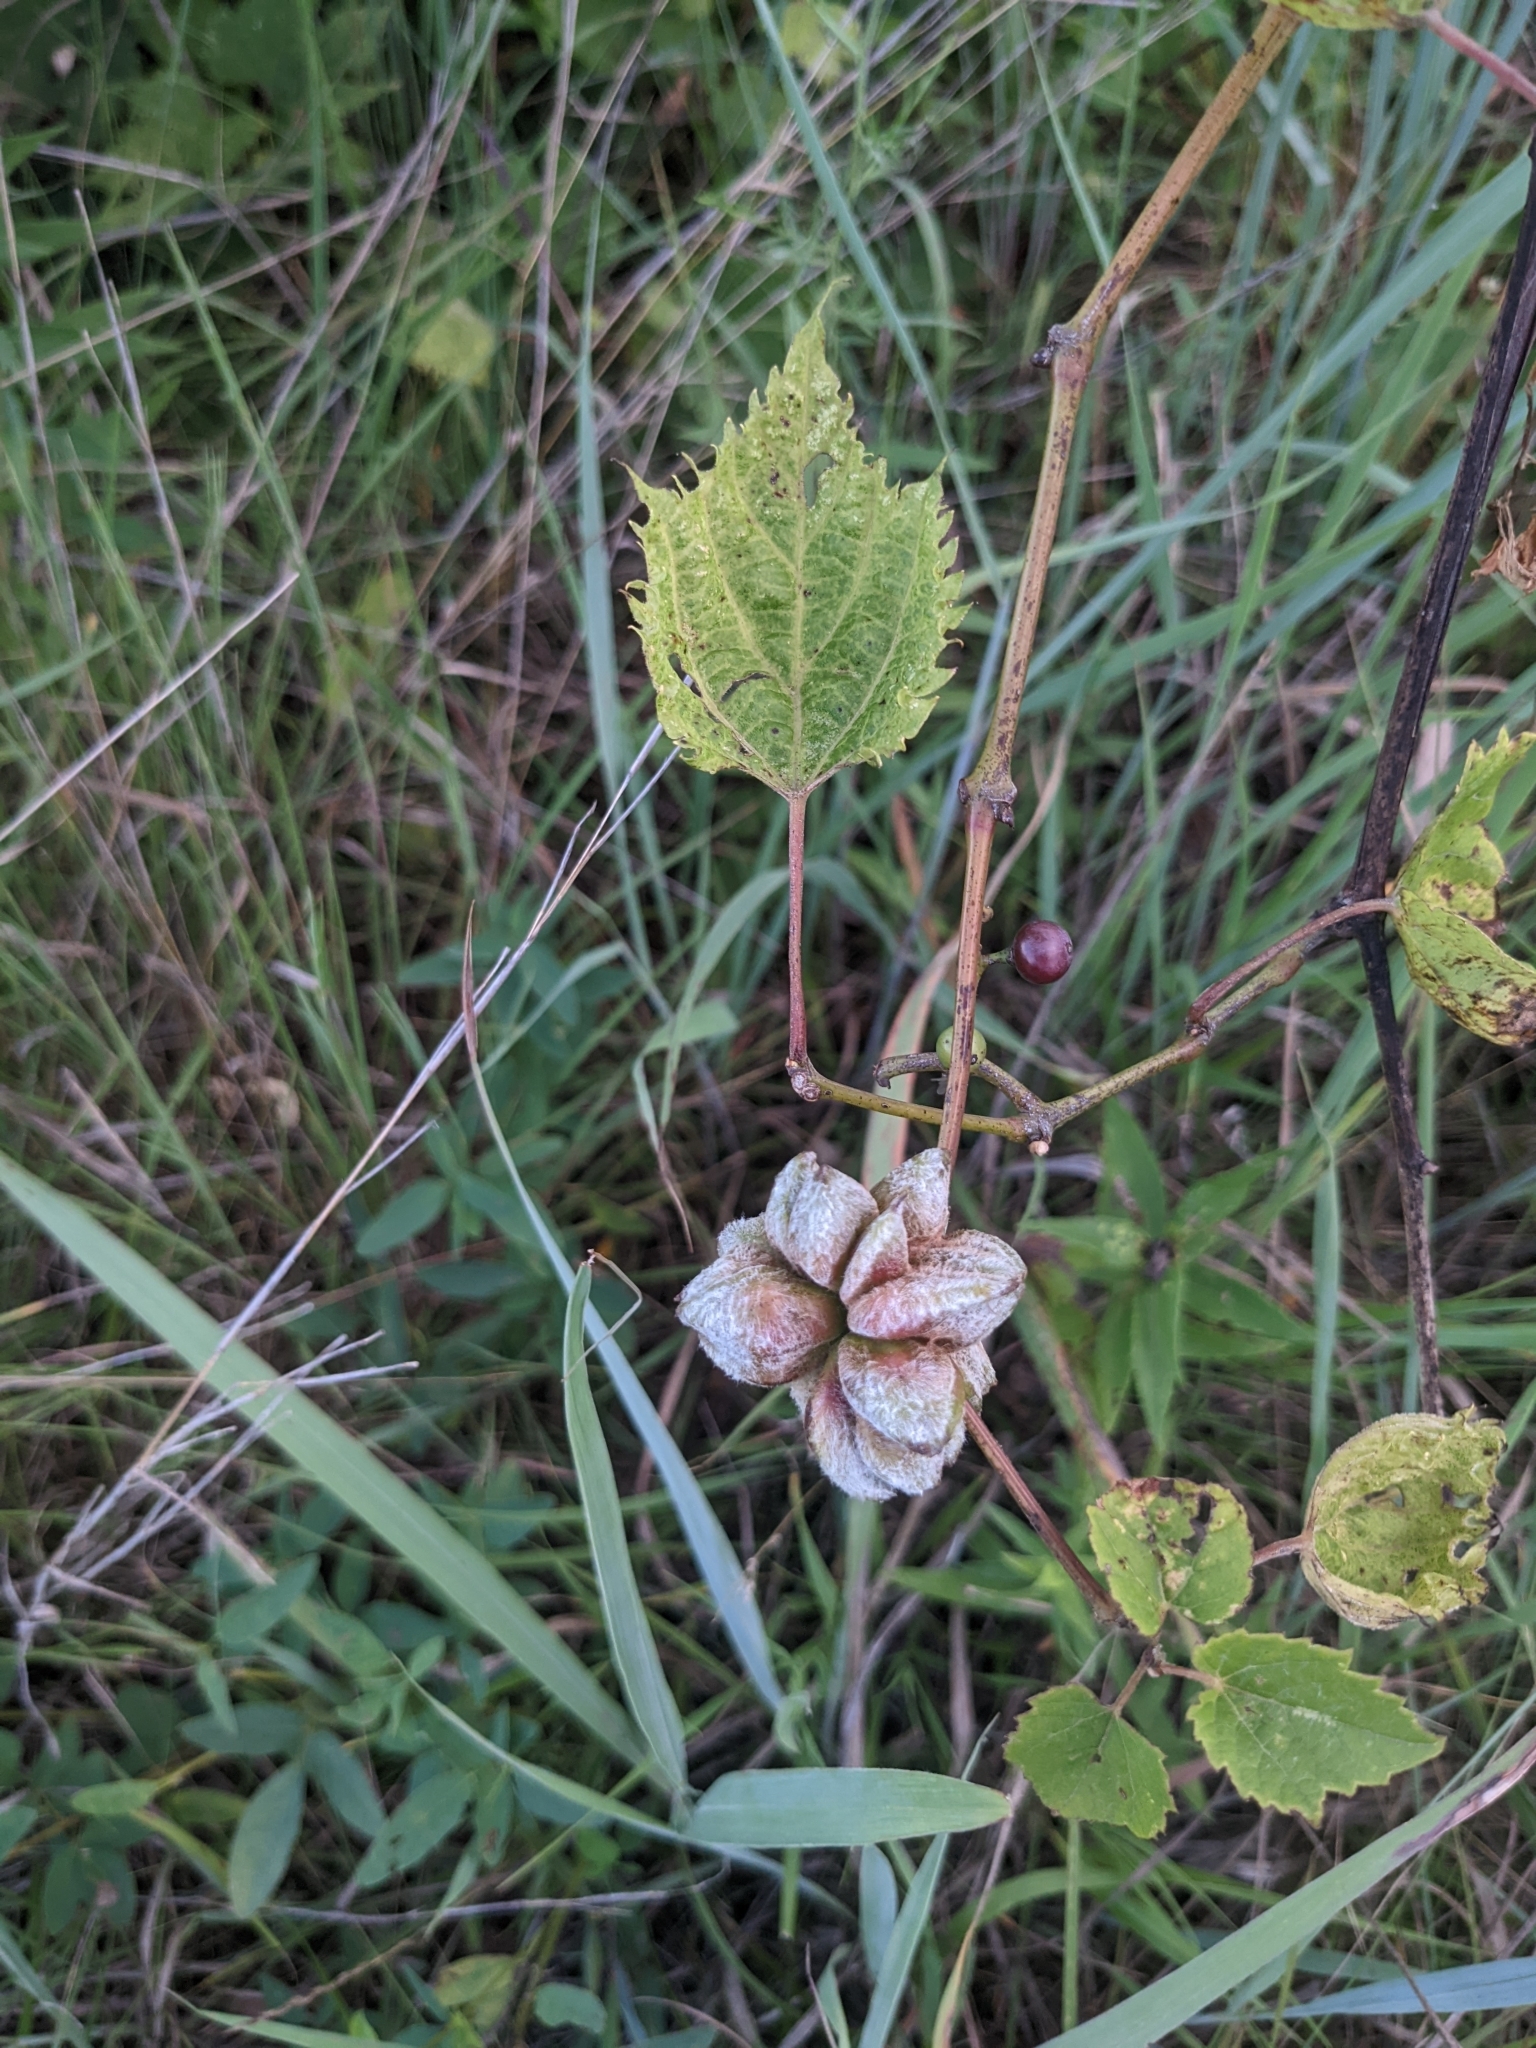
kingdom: Animalia
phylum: Arthropoda
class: Insecta
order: Diptera
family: Cecidomyiidae
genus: Ampelomyia
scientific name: Ampelomyia vitiscoryloides
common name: Grape filbert gall
